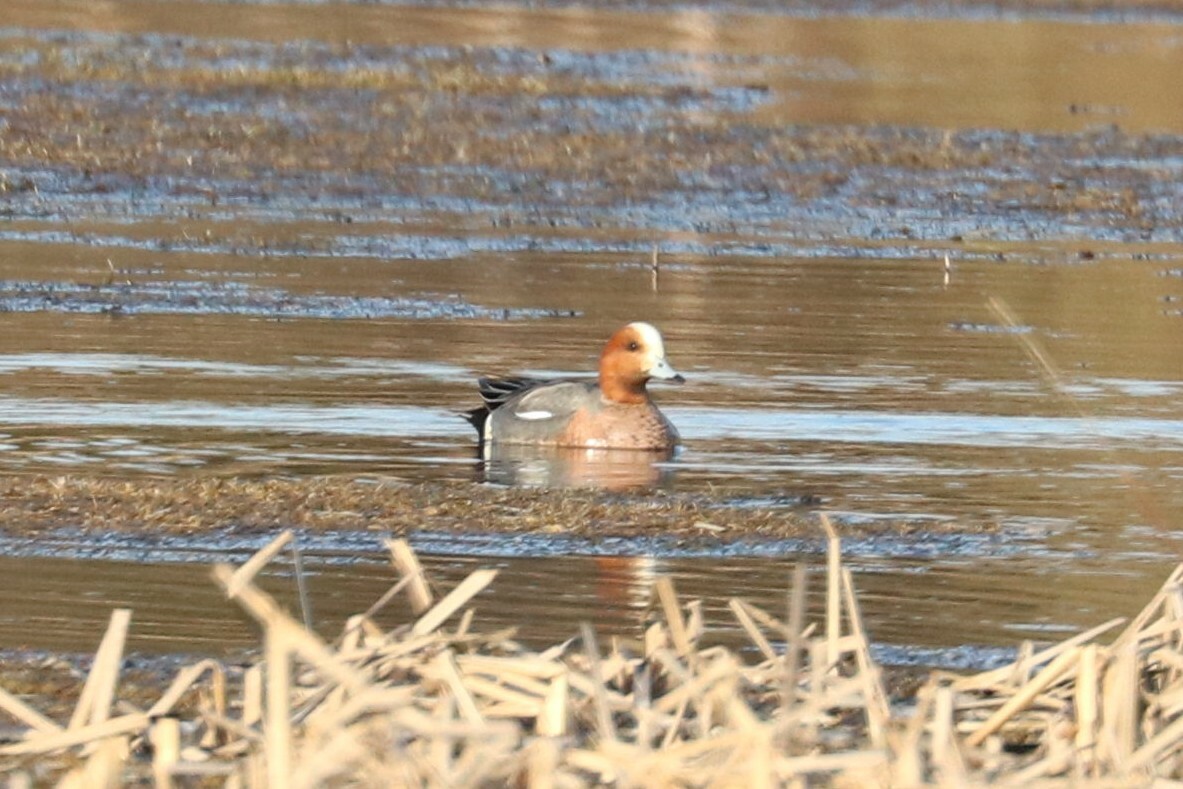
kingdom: Animalia
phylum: Chordata
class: Aves
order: Anseriformes
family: Anatidae
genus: Mareca
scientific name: Mareca penelope
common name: Eurasian wigeon
